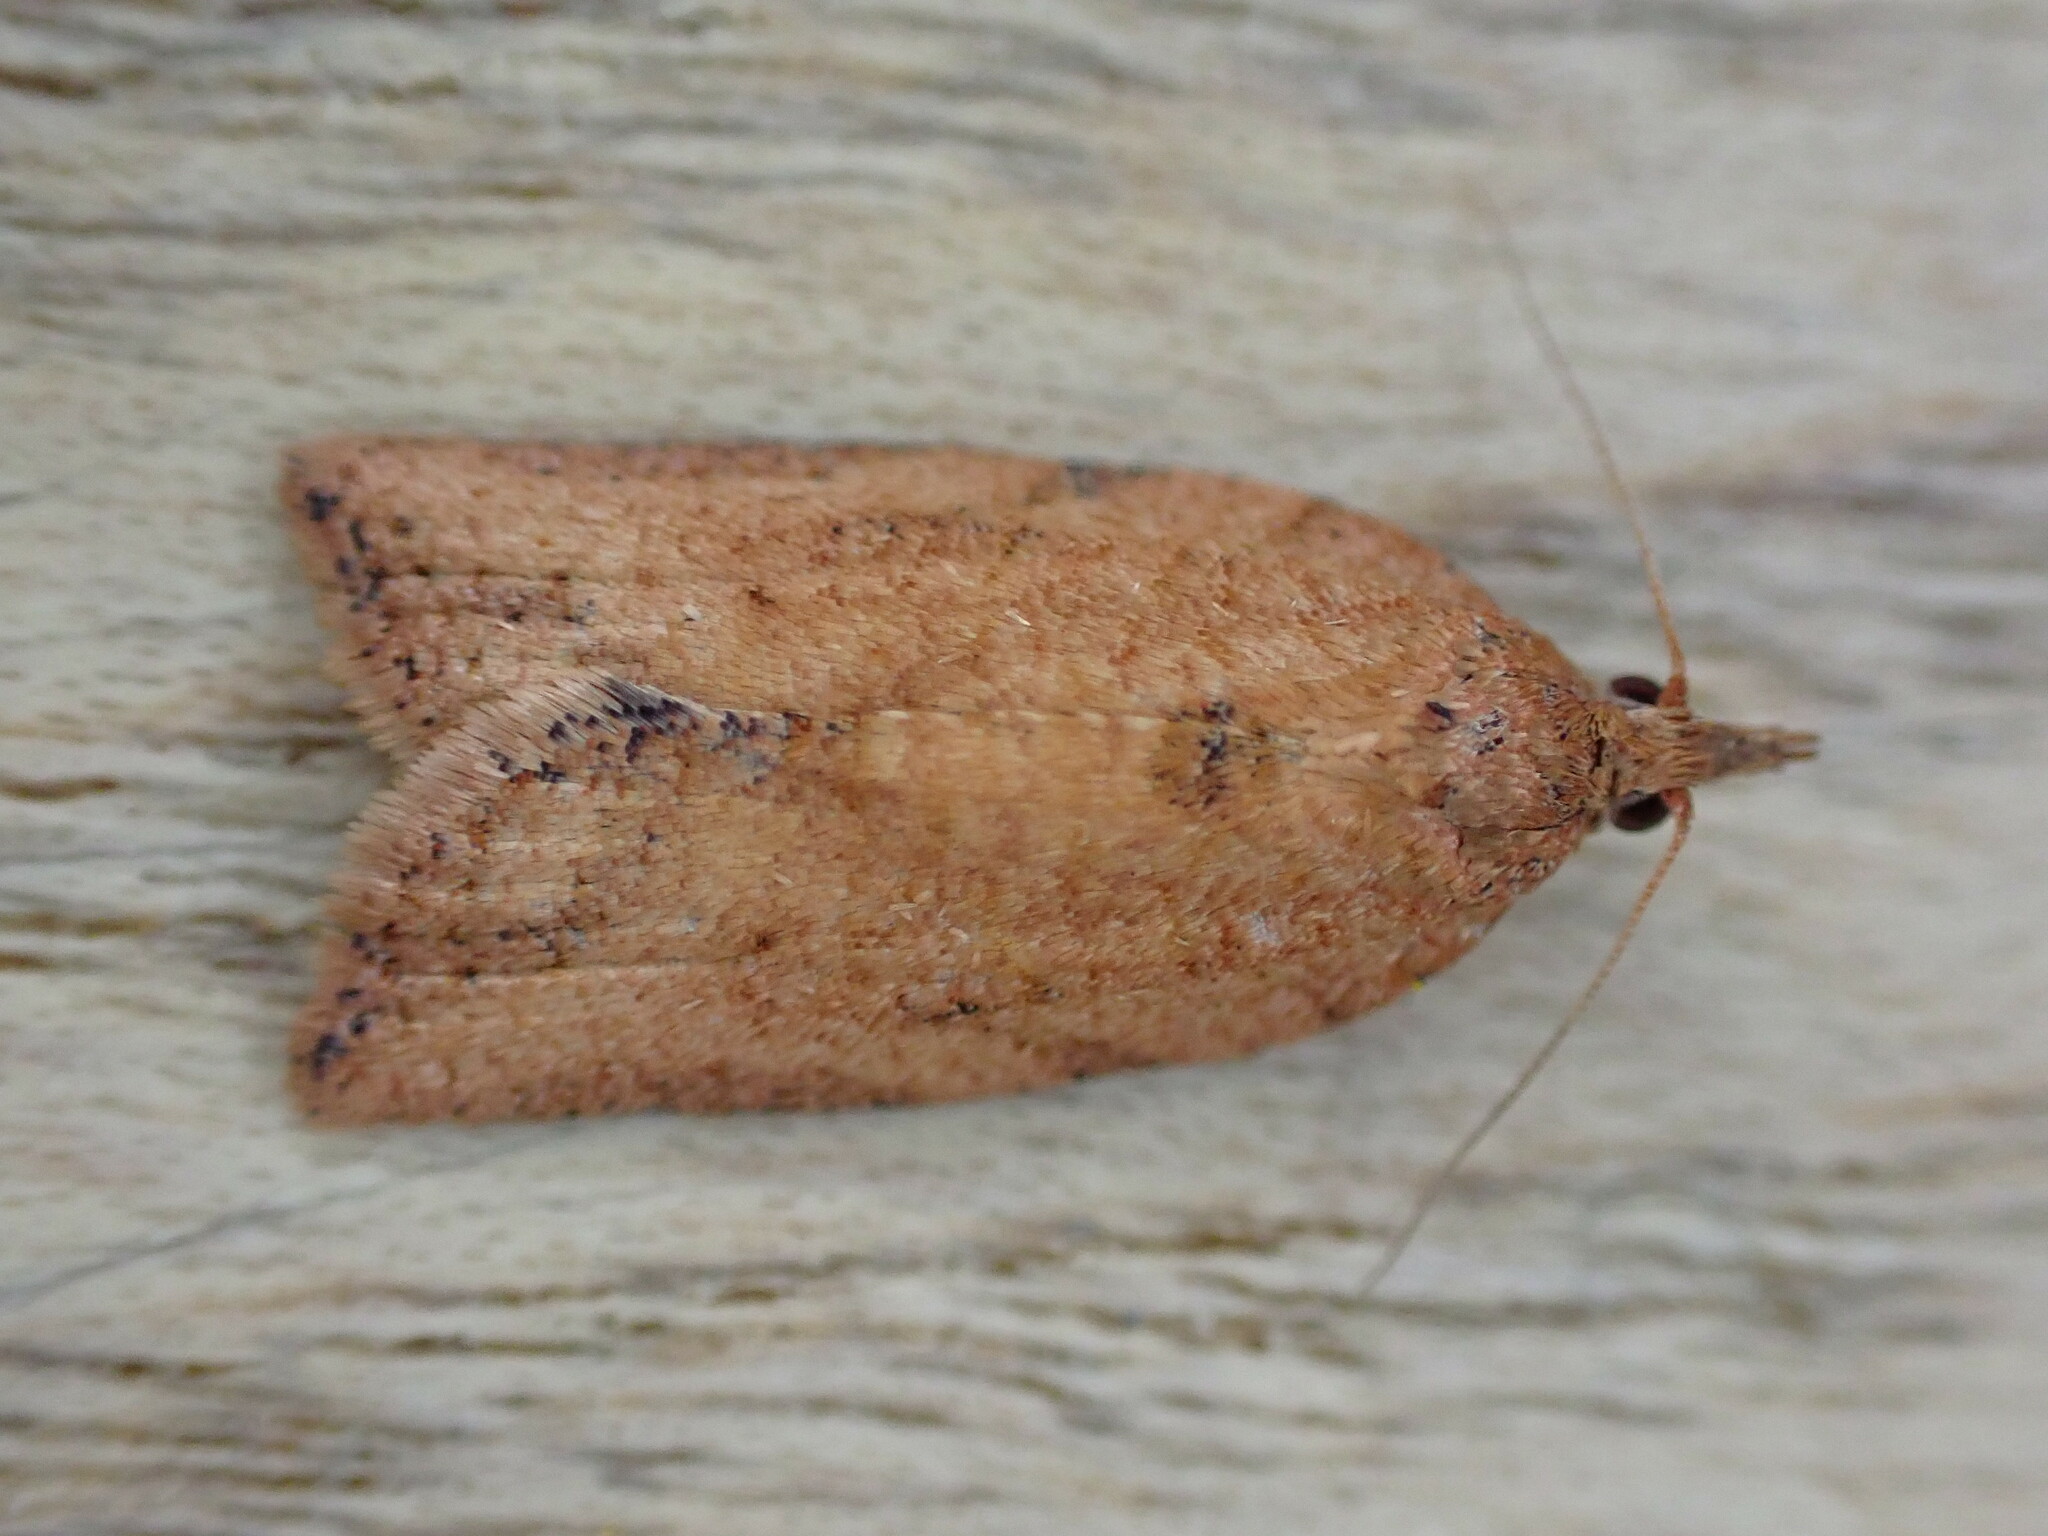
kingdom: Animalia
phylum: Arthropoda
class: Insecta
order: Lepidoptera
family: Tortricidae
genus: Epiphyas
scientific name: Epiphyas postvittana
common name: Light brown apple moth
